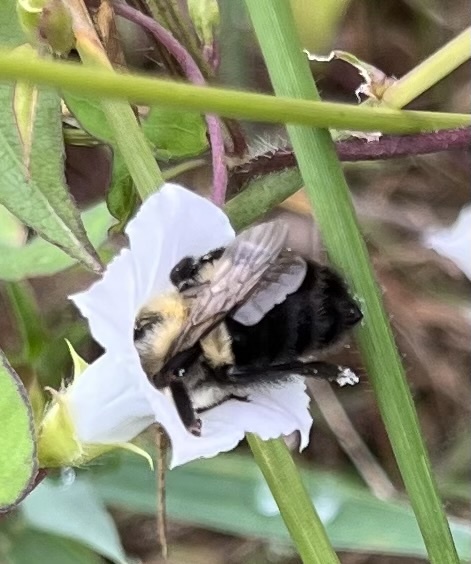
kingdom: Animalia
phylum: Arthropoda
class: Insecta
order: Hymenoptera
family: Apidae
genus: Bombus
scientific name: Bombus impatiens
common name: Common eastern bumble bee
